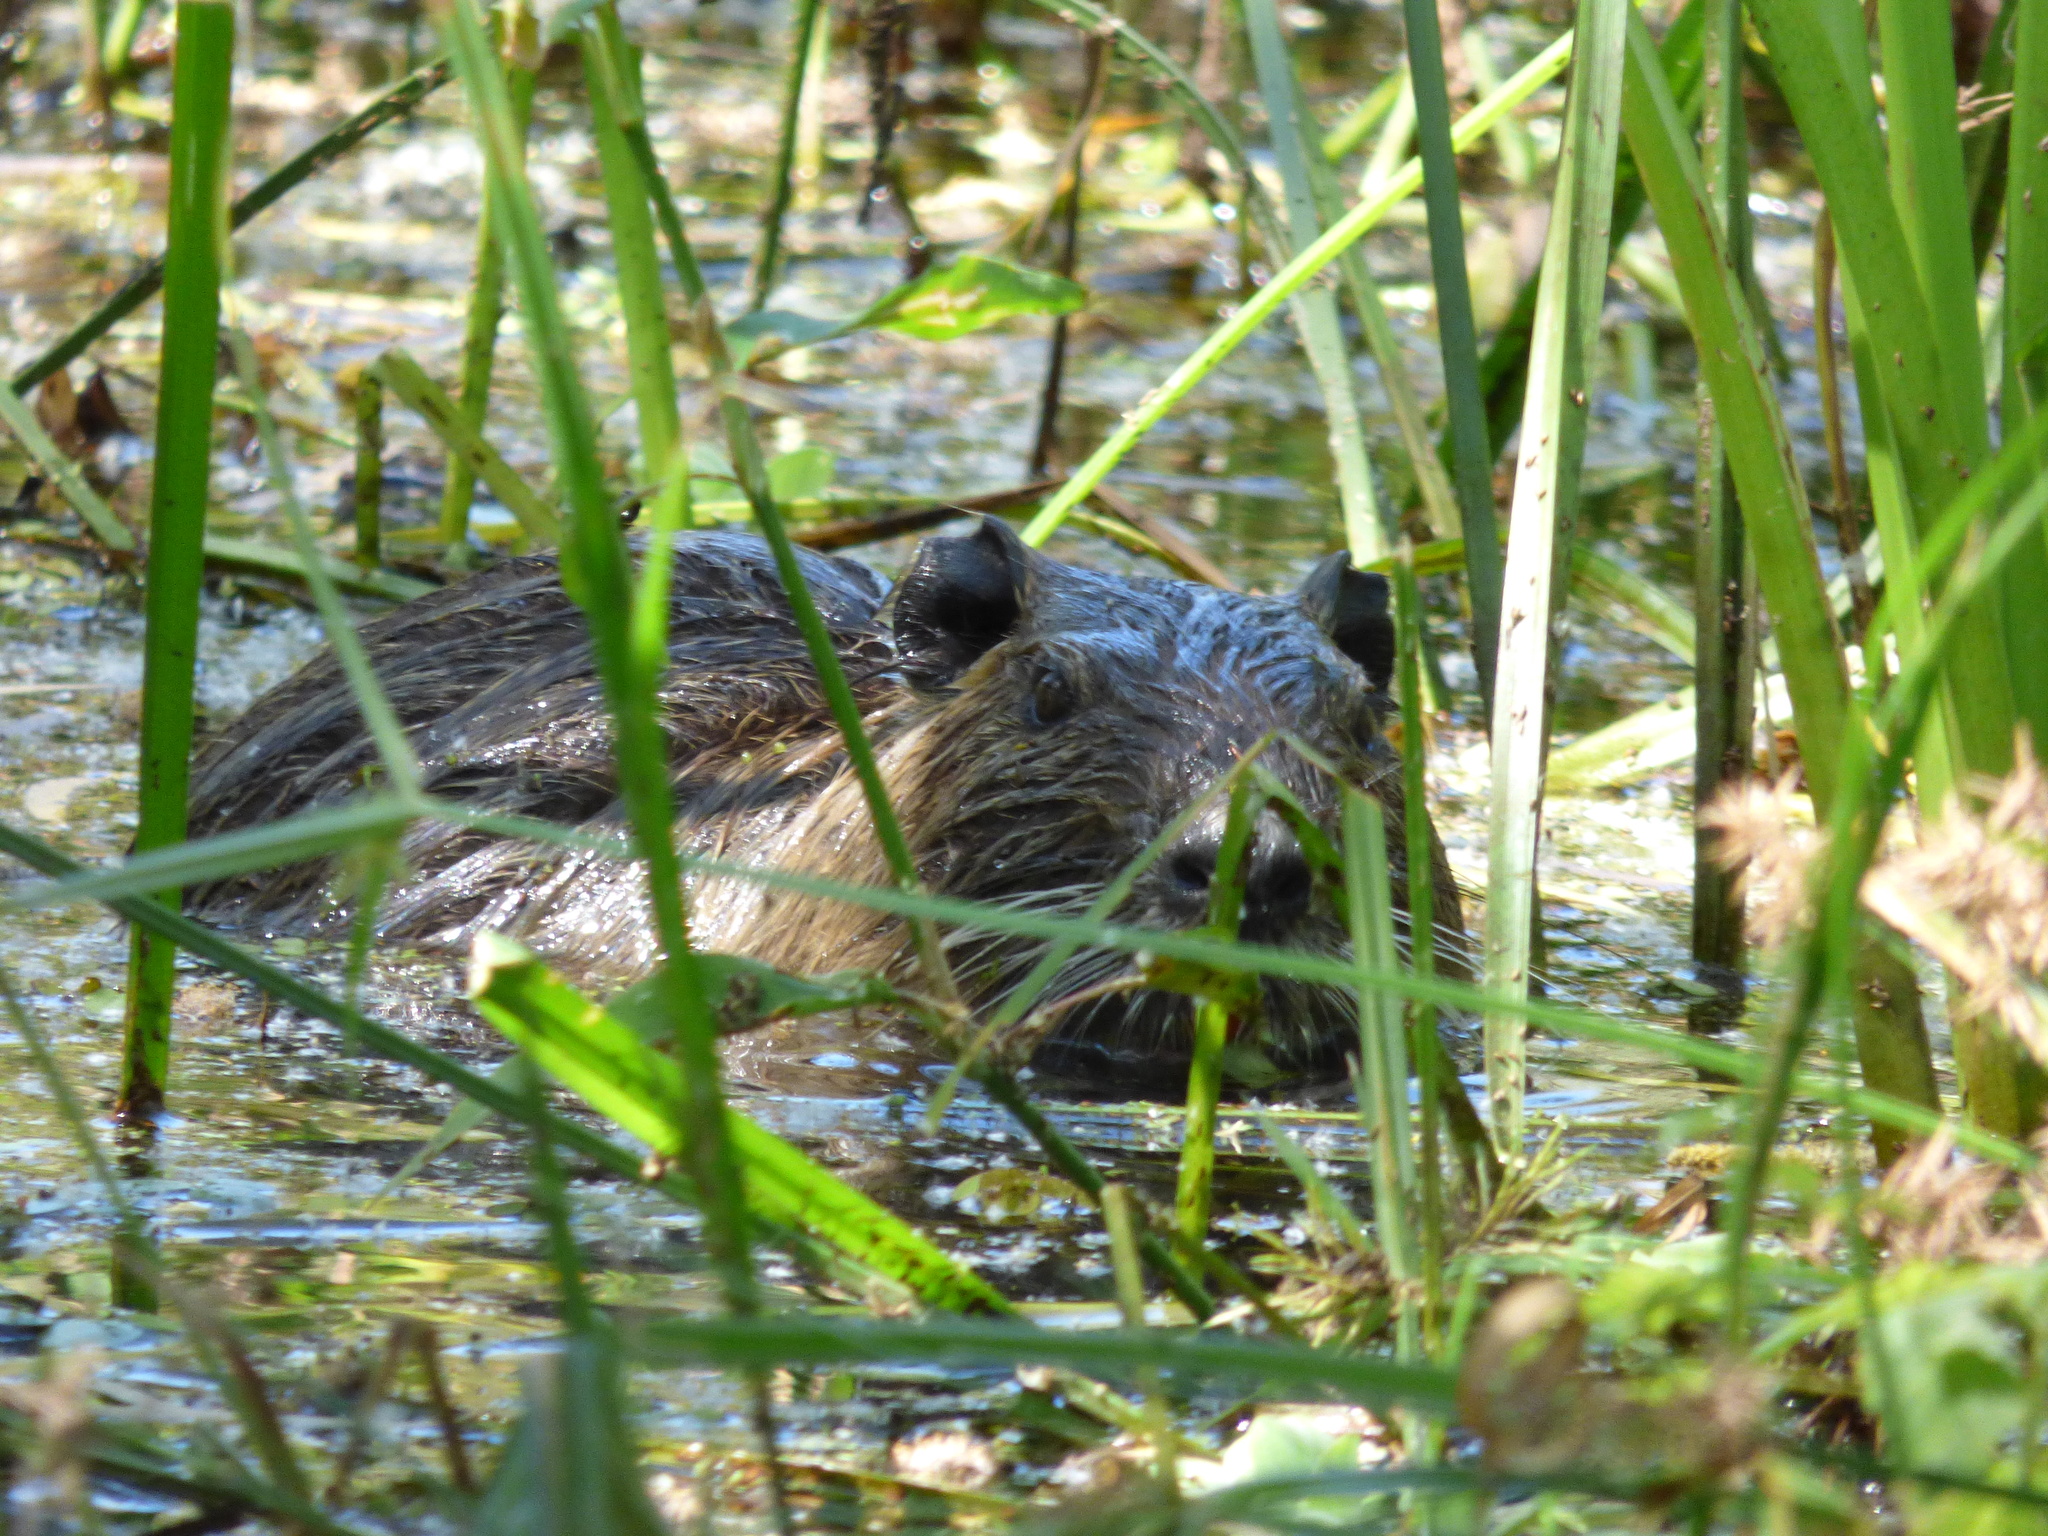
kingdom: Animalia
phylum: Chordata
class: Mammalia
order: Rodentia
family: Myocastoridae
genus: Myocastor
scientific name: Myocastor coypus
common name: Coypu
